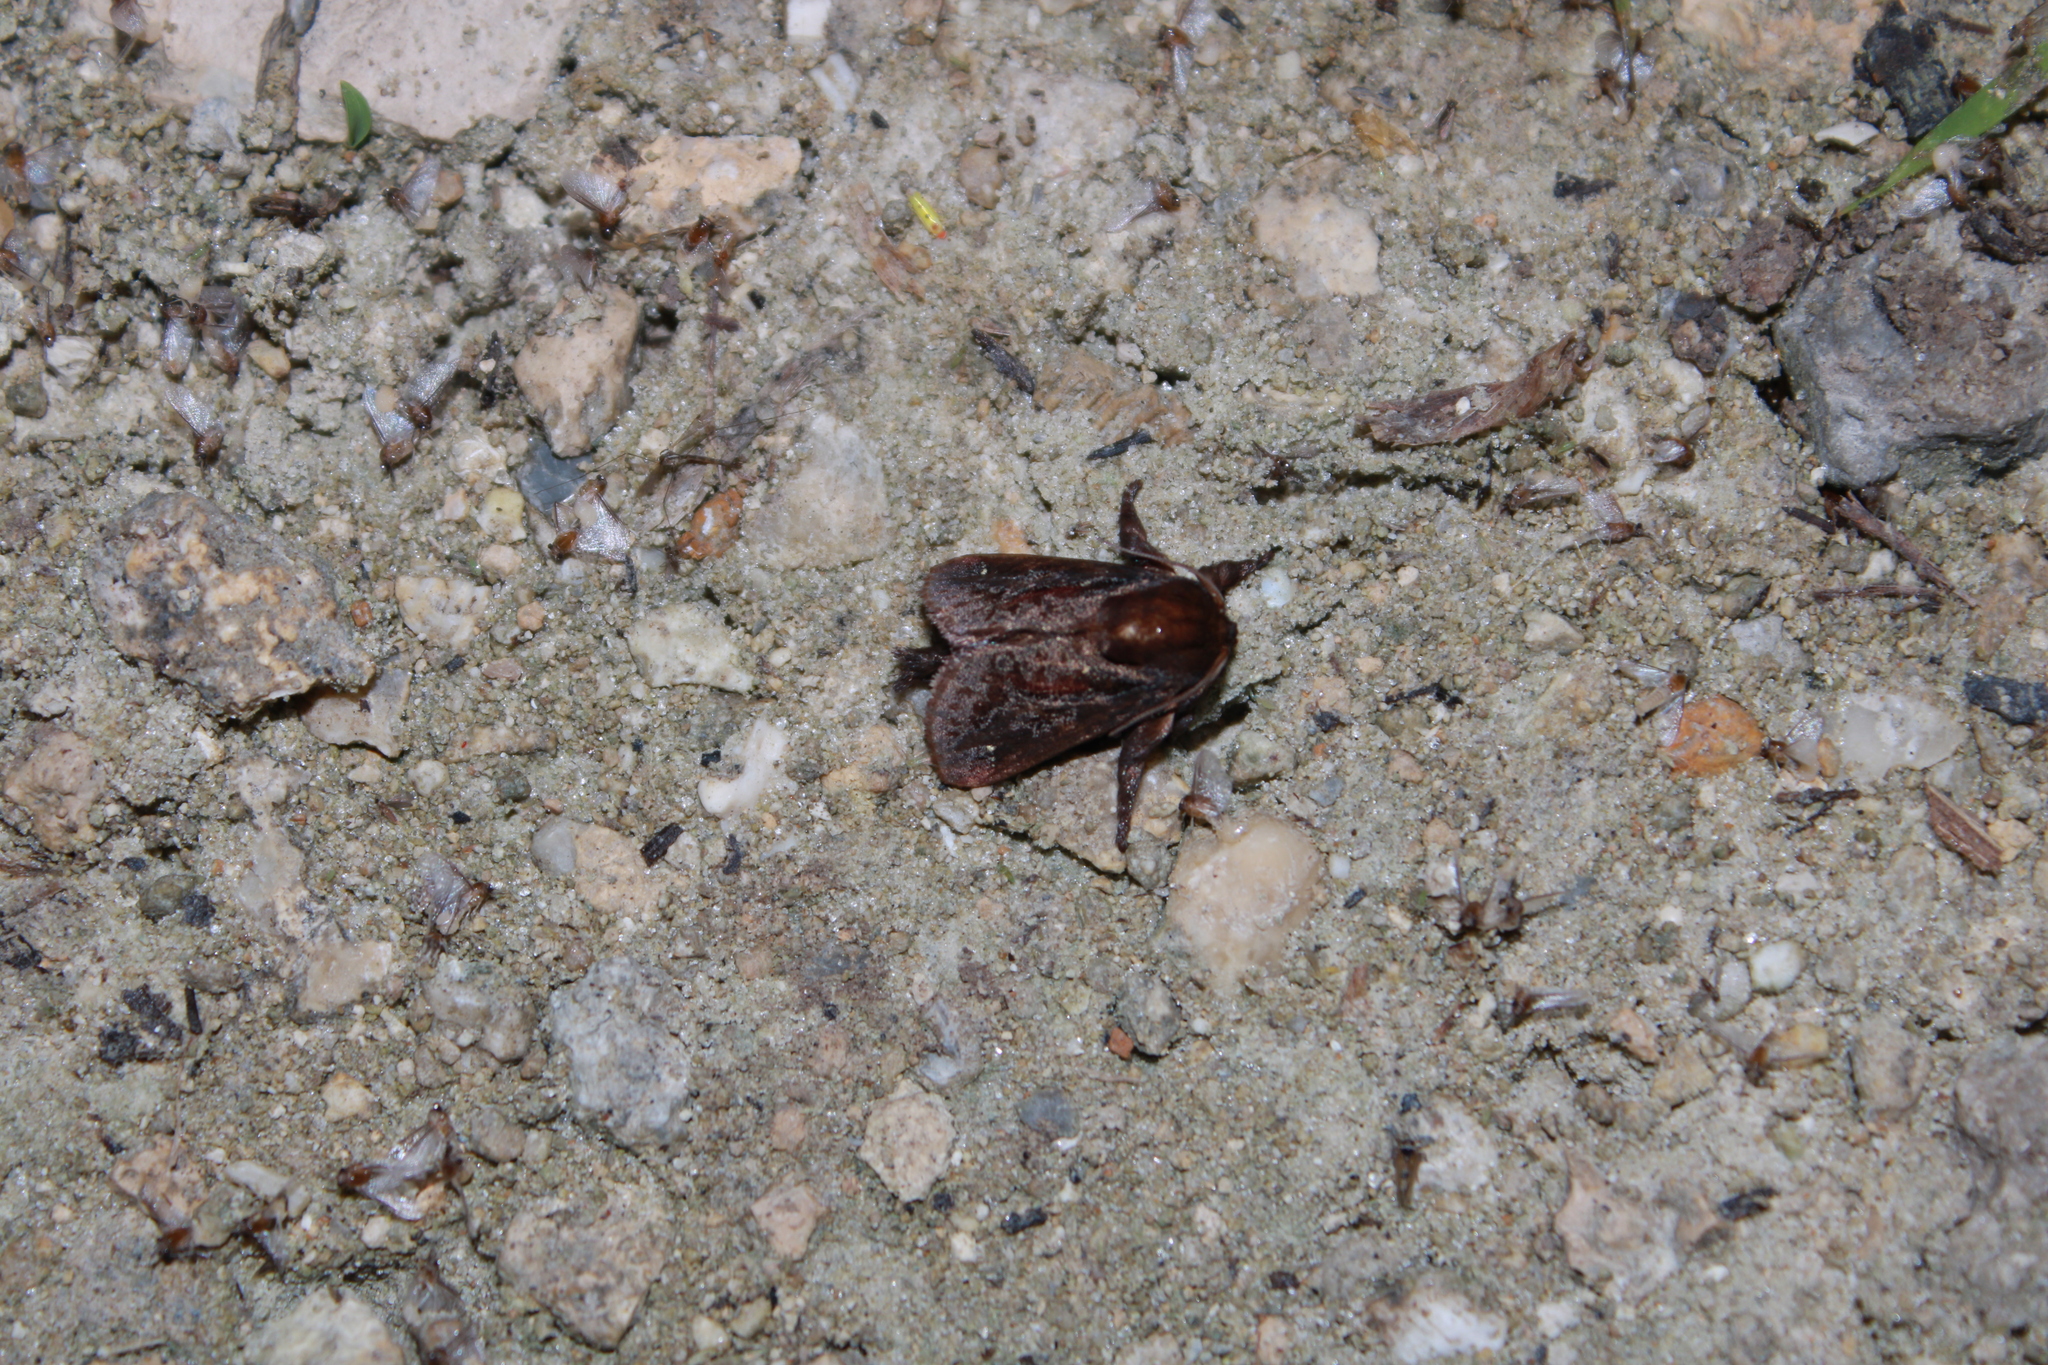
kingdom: Animalia
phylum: Arthropoda
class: Insecta
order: Lepidoptera
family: Limacodidae
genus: Acharia
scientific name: Acharia stimulea
